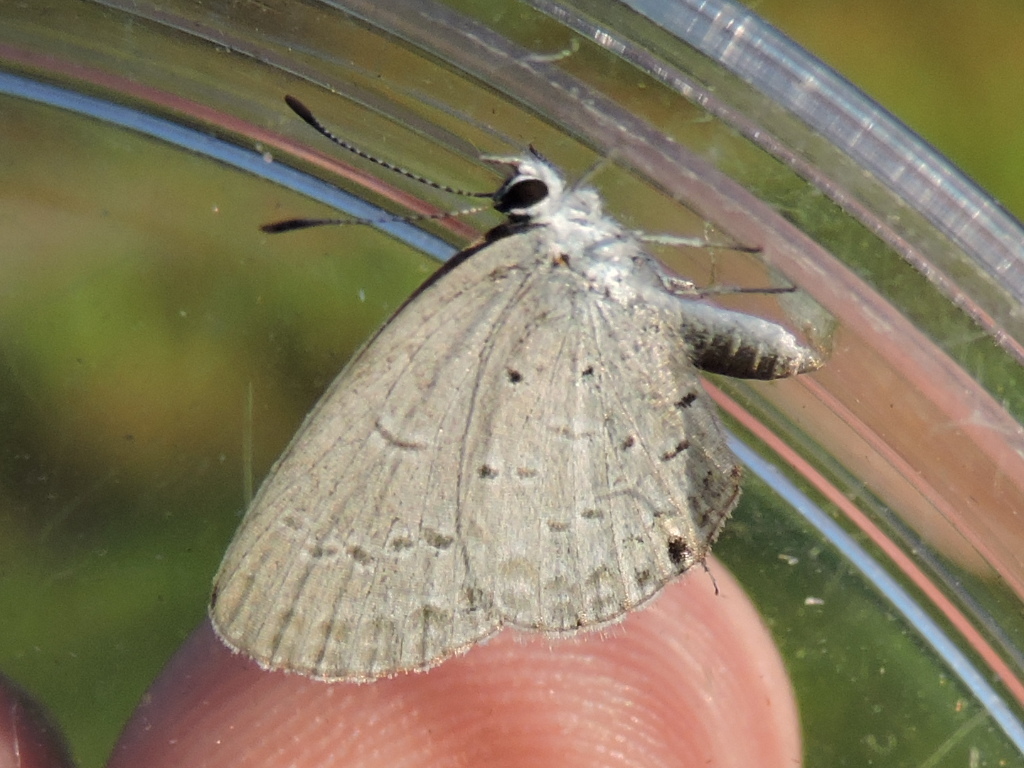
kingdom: Animalia
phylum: Arthropoda
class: Insecta
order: Lepidoptera
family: Lycaenidae
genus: Elkalyce
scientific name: Elkalyce comyntas
